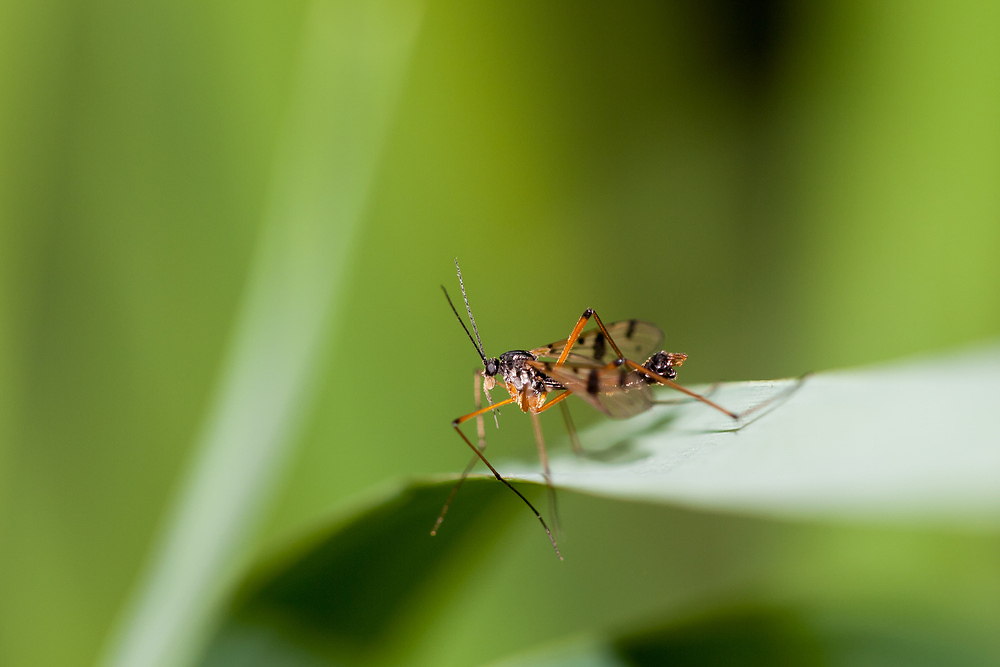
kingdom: Animalia
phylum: Arthropoda
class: Insecta
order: Diptera
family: Ptychopteridae
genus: Ptychoptera
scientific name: Ptychoptera contaminata
